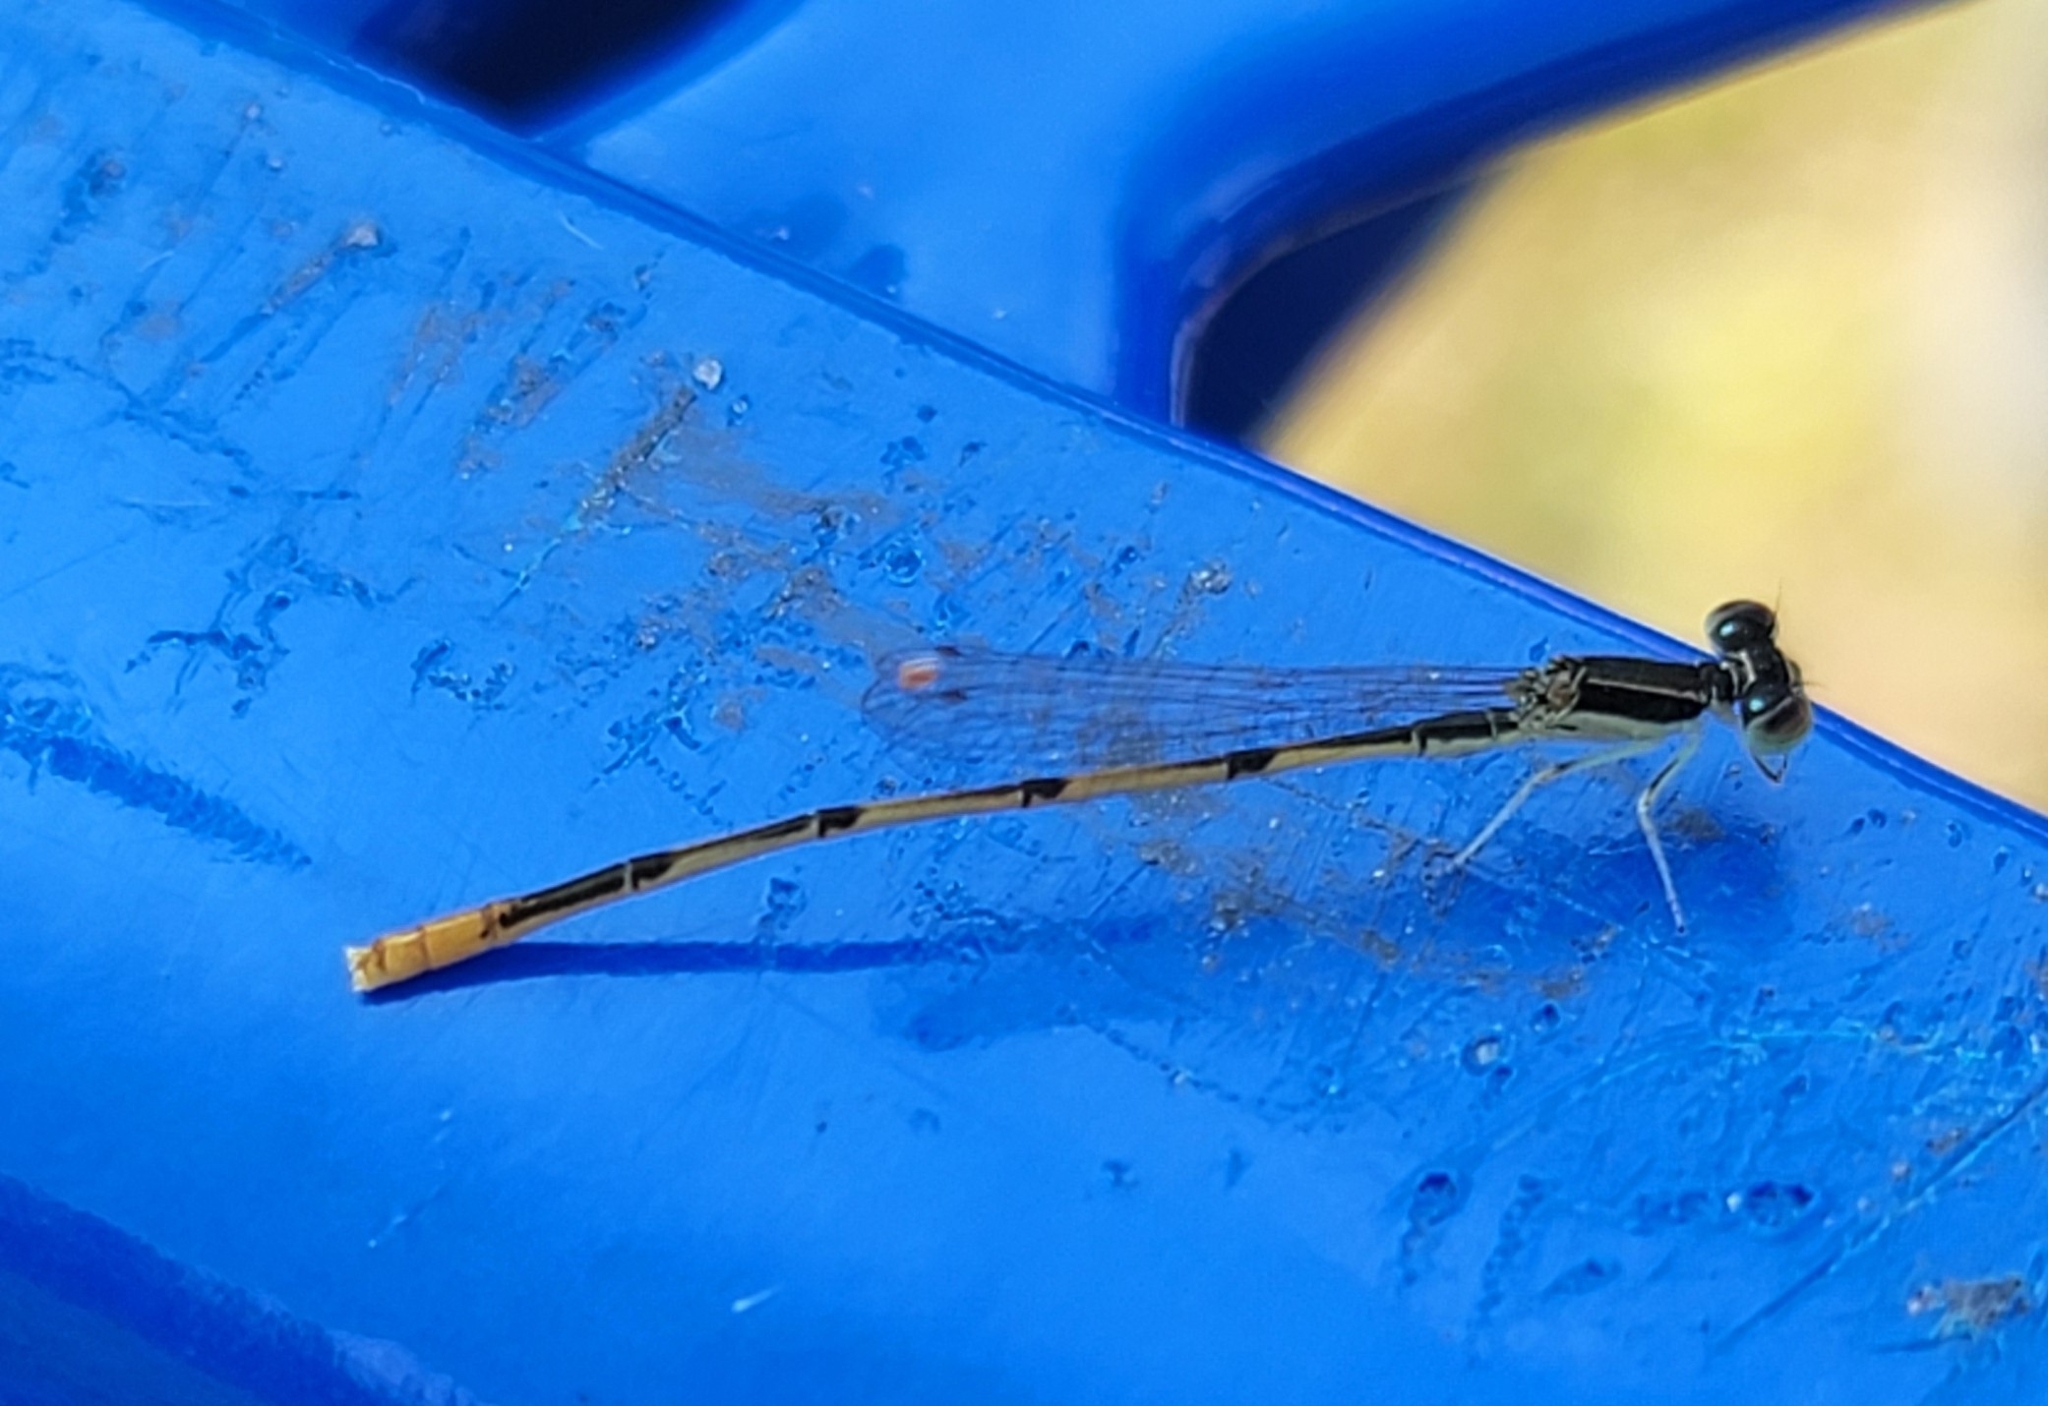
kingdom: Animalia
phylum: Arthropoda
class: Insecta
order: Odonata
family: Coenagrionidae
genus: Ischnura
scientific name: Ischnura hastata
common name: Citrine forktail
